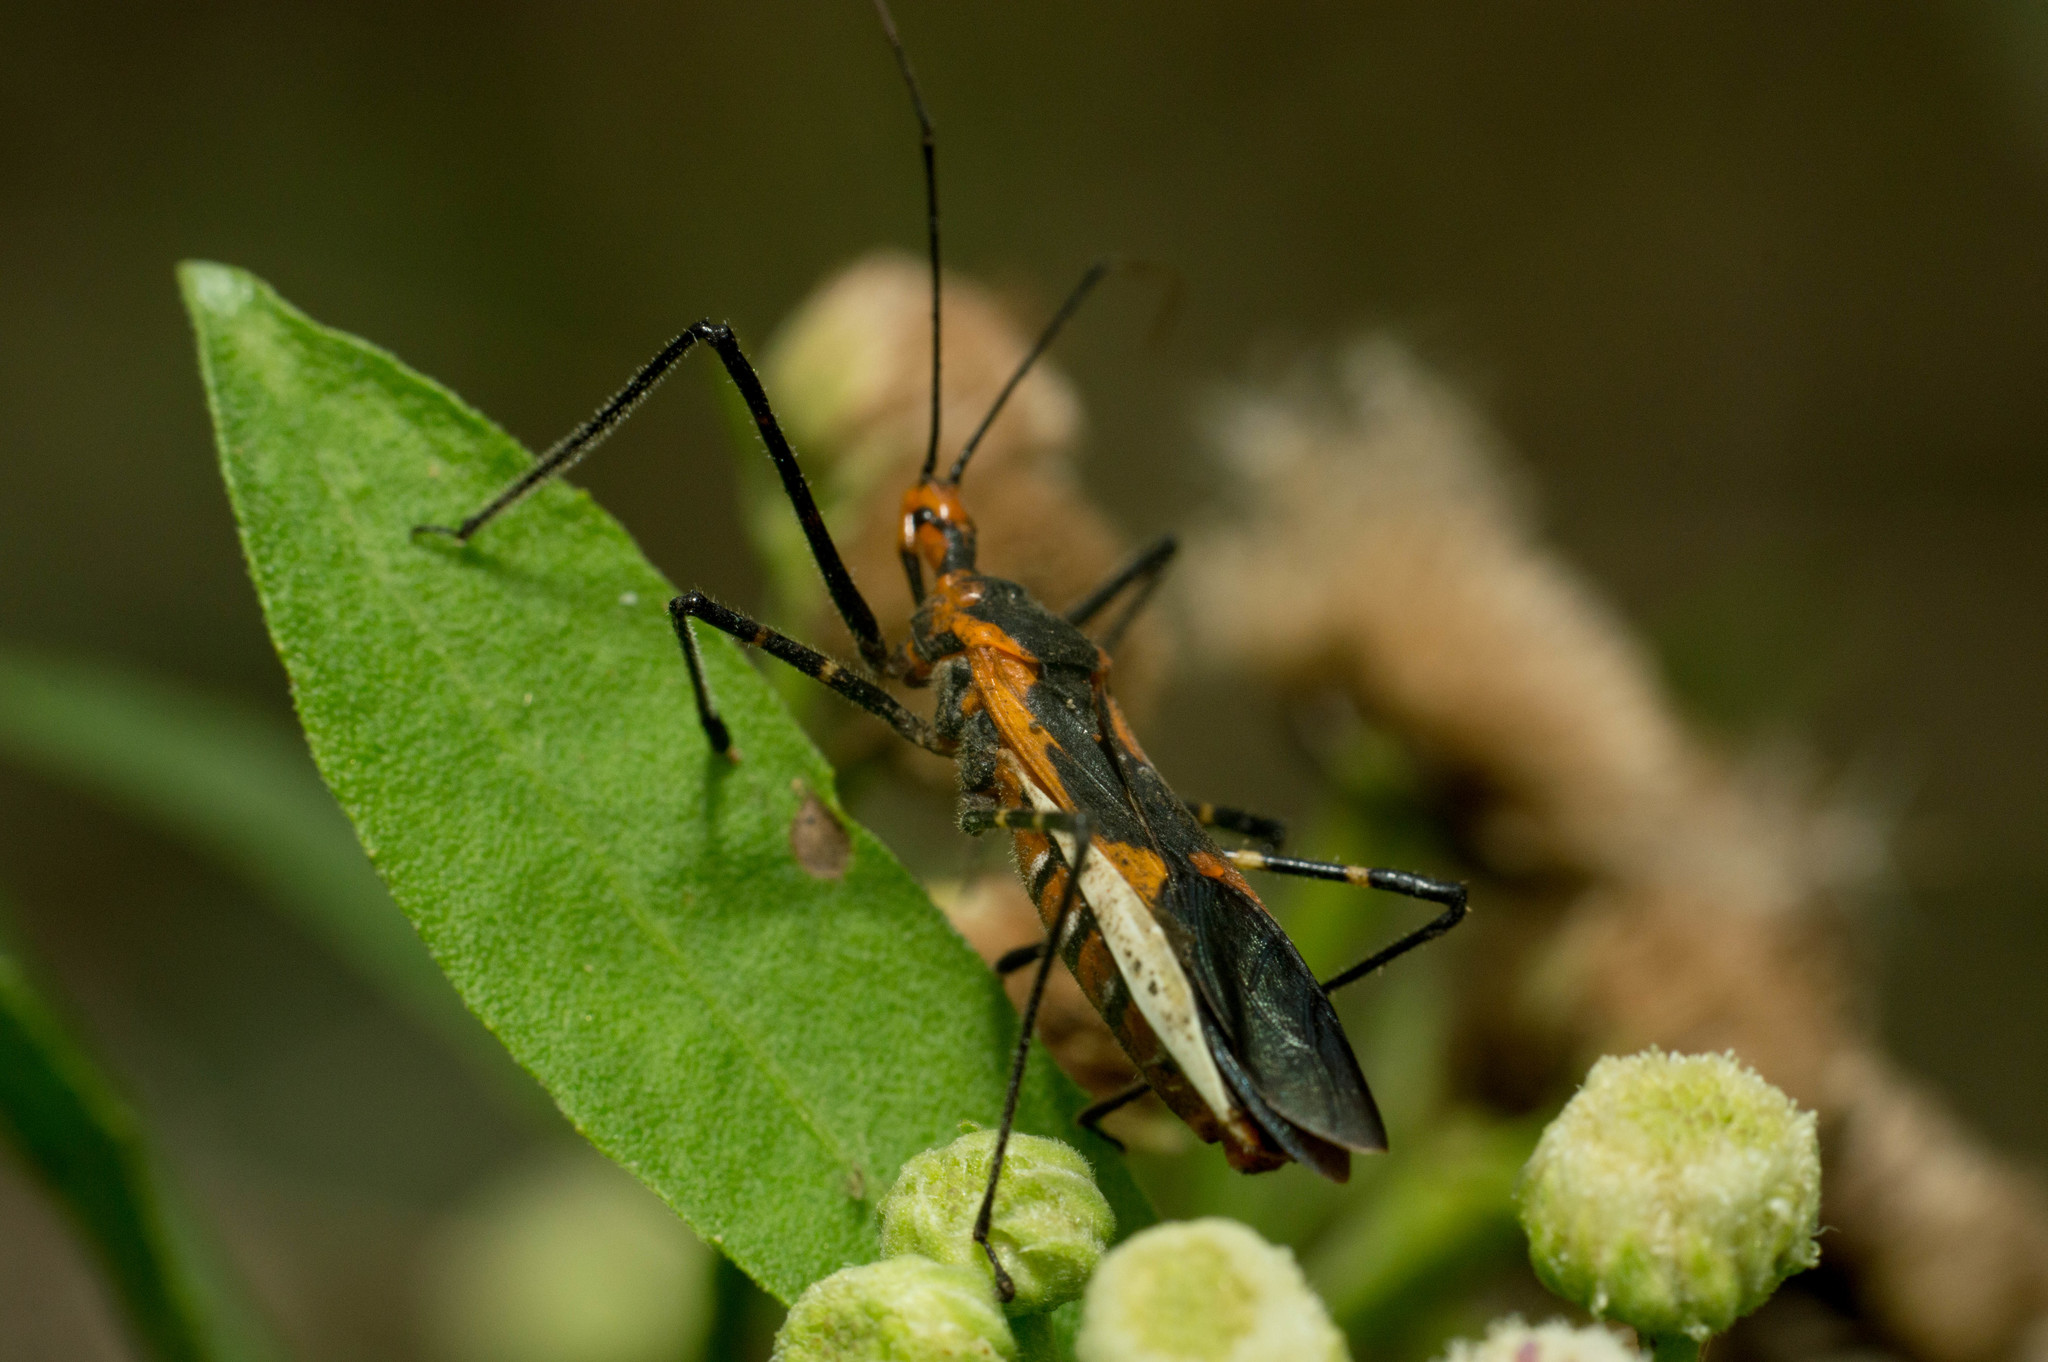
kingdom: Animalia
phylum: Arthropoda
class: Insecta
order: Hemiptera
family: Reduviidae
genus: Zelus
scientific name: Zelus longipes
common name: Milkweed assassin bug
